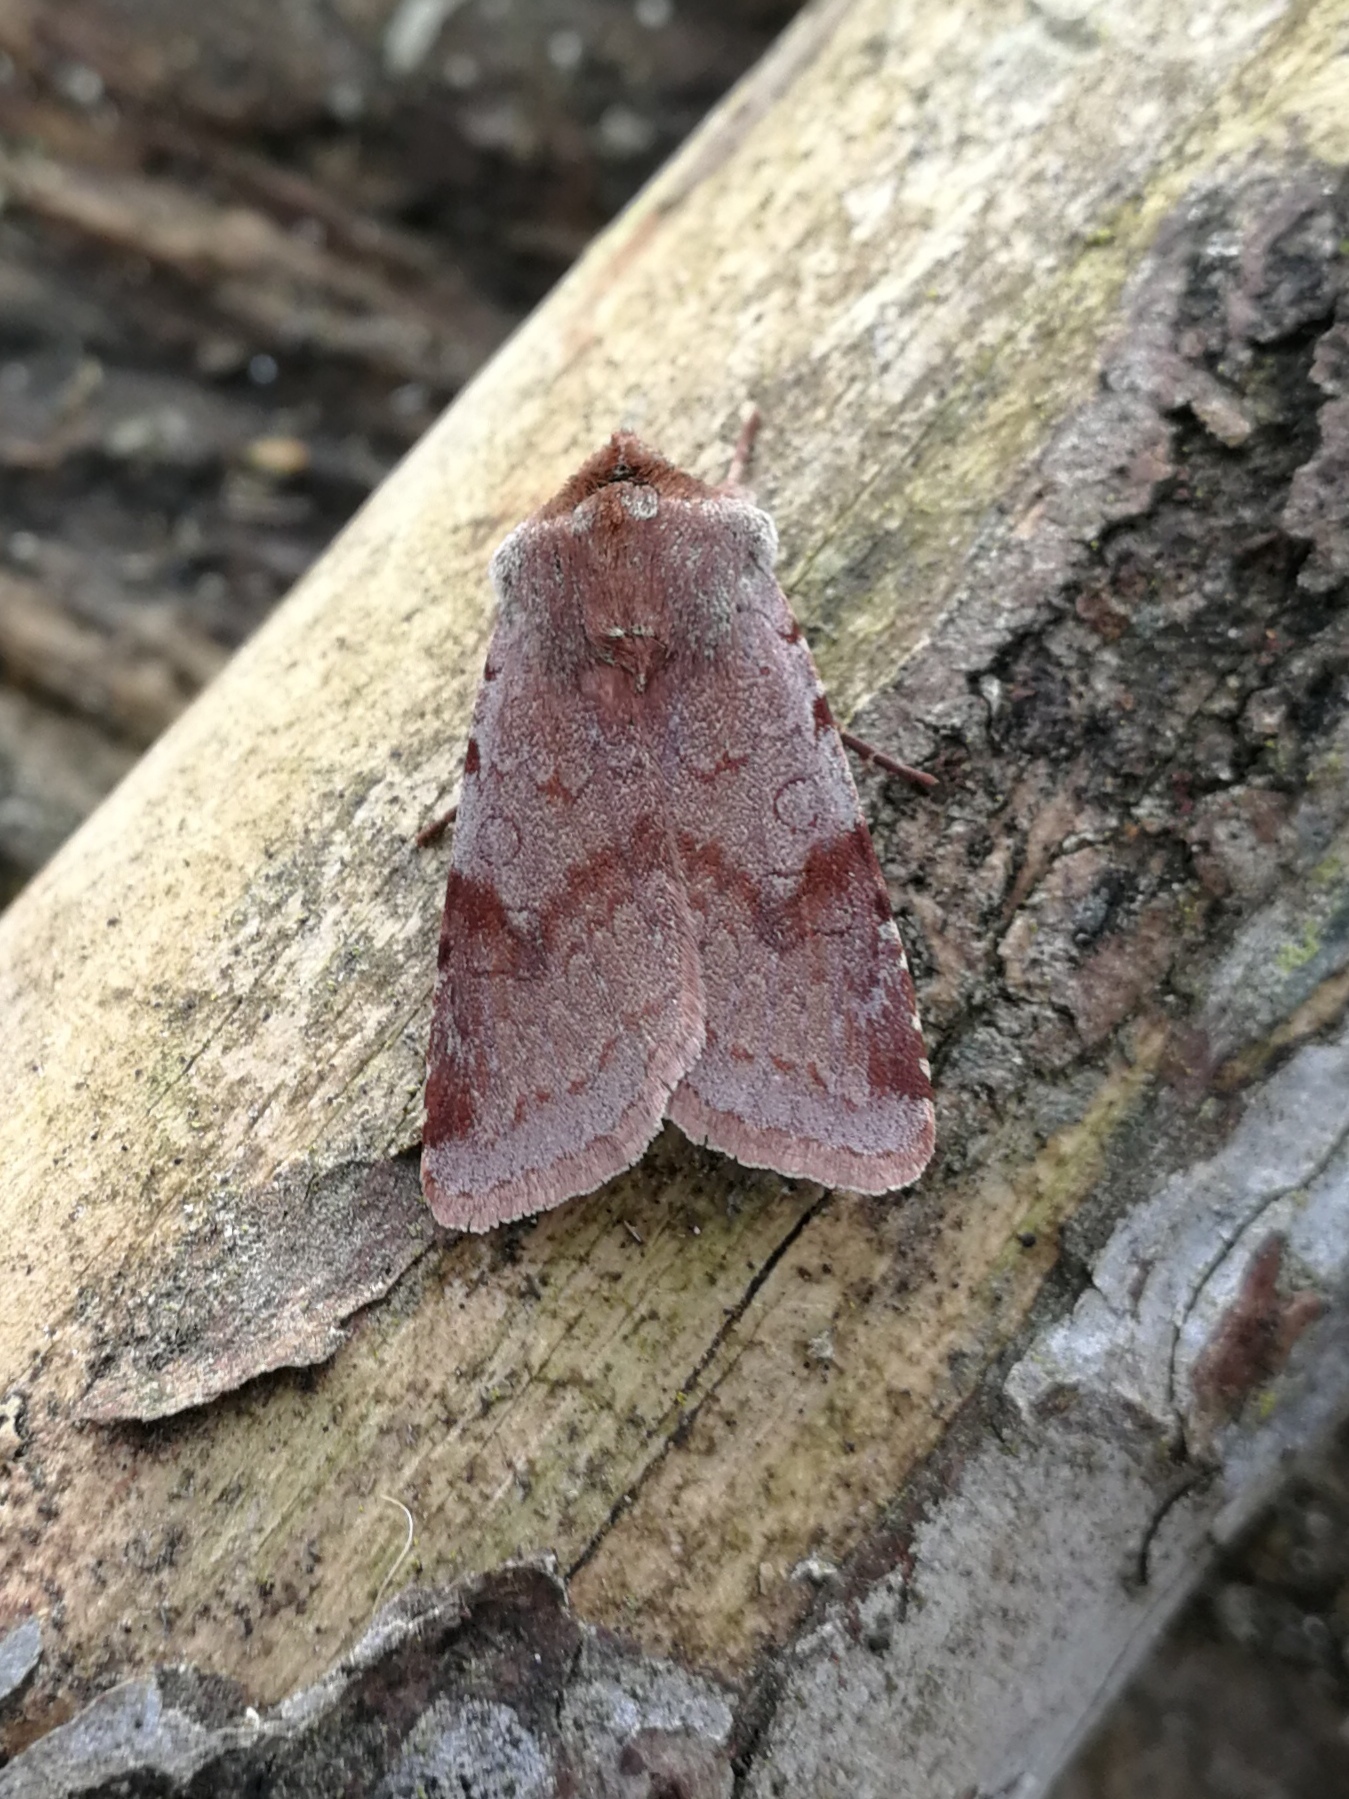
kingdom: Animalia
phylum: Arthropoda
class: Insecta
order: Lepidoptera
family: Noctuidae
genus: Cerastis
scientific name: Cerastis rubricosa
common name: Red chestnut
